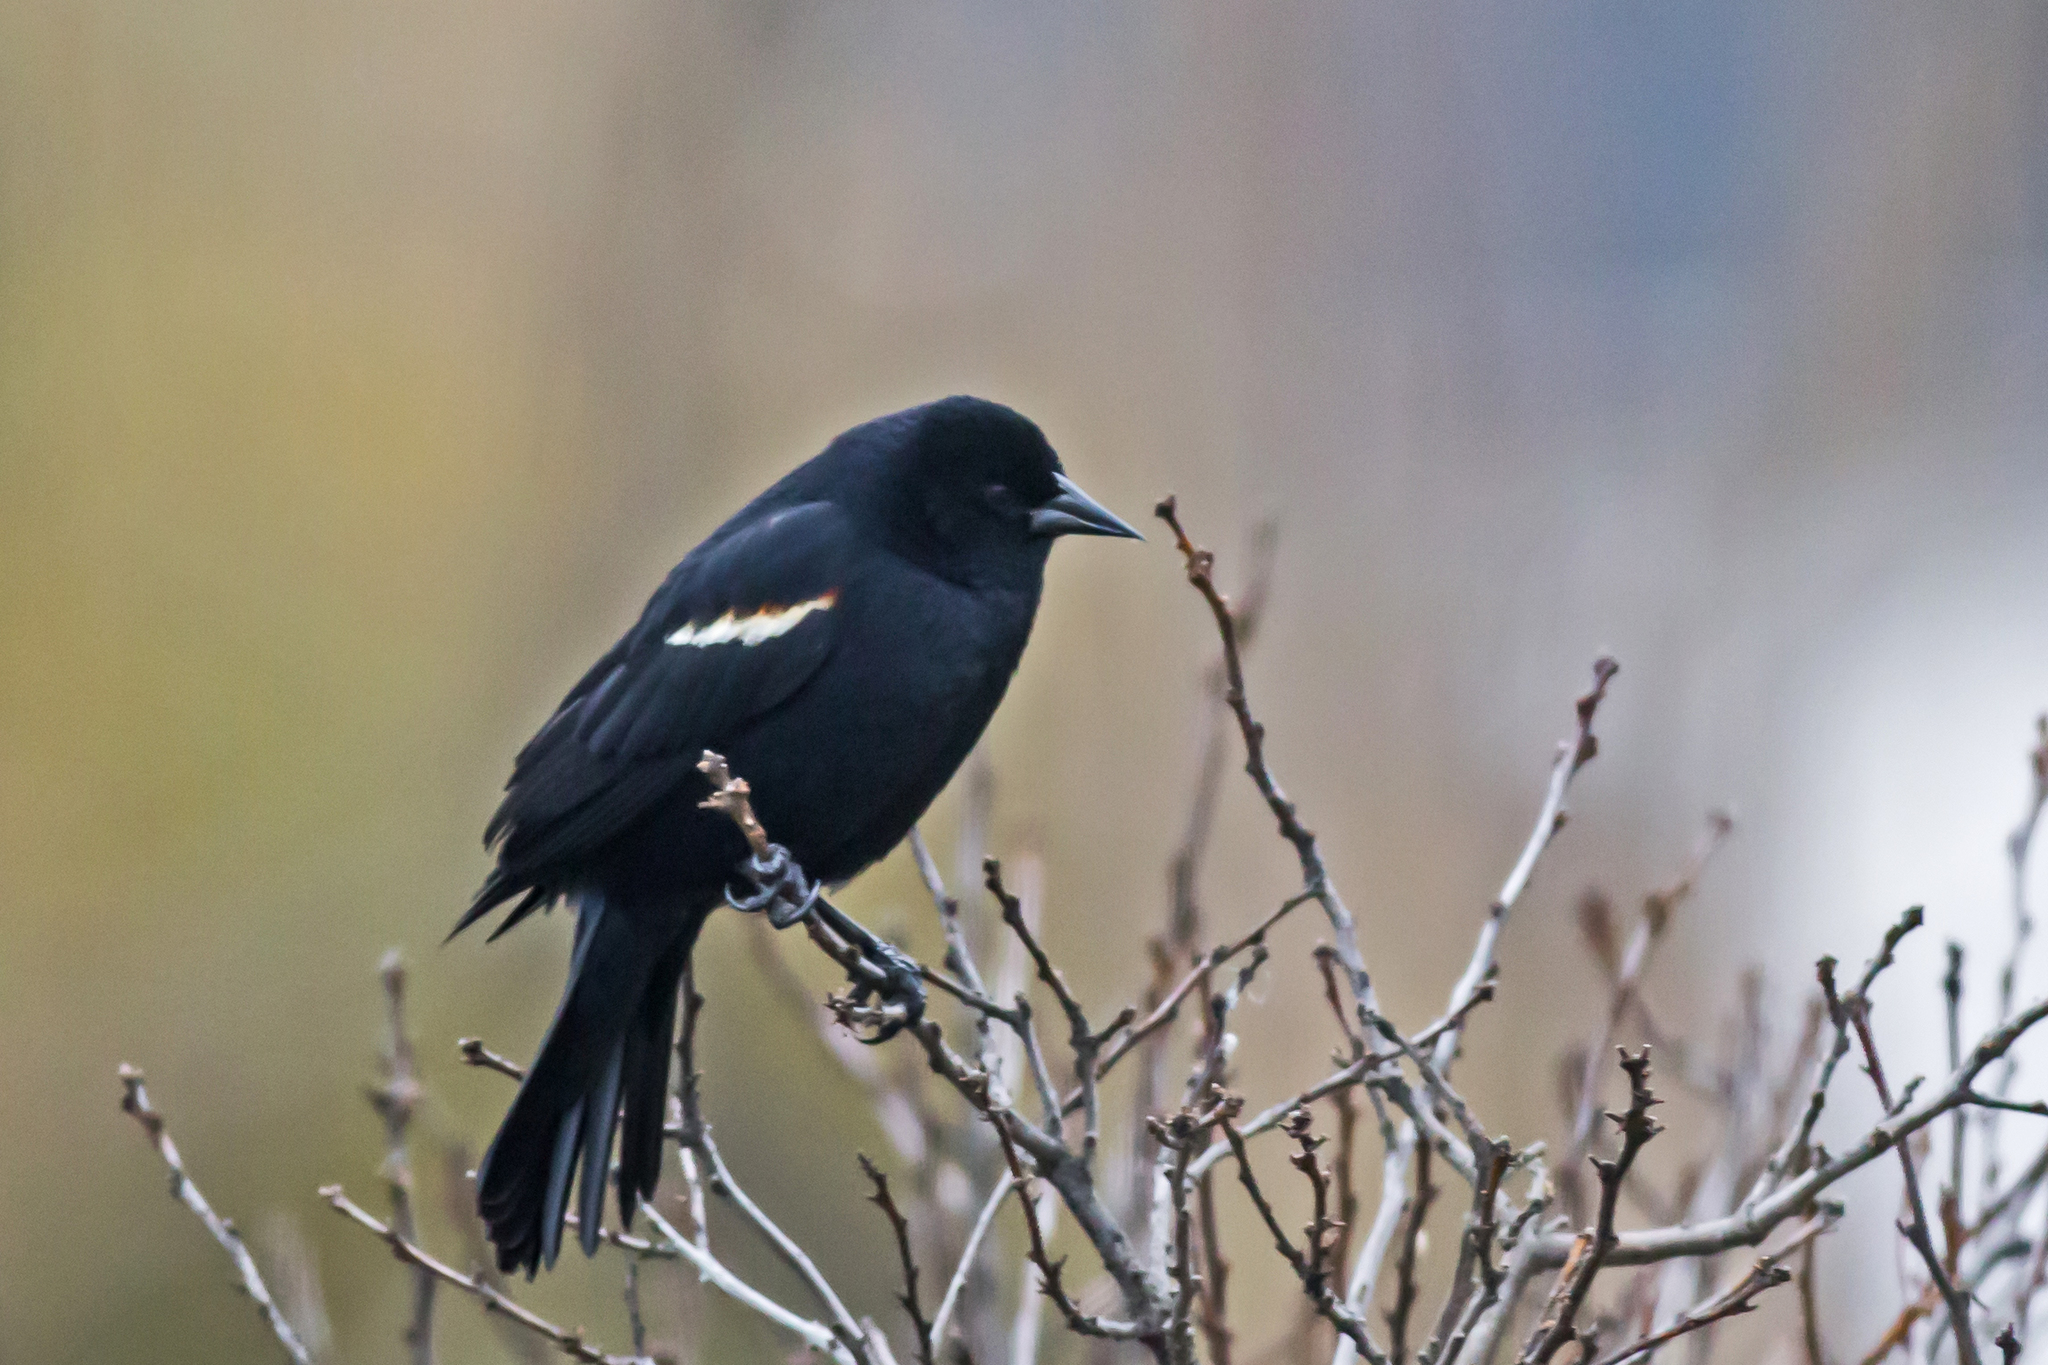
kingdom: Animalia
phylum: Chordata
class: Aves
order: Passeriformes
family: Icteridae
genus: Agelaius
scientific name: Agelaius phoeniceus
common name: Red-winged blackbird
